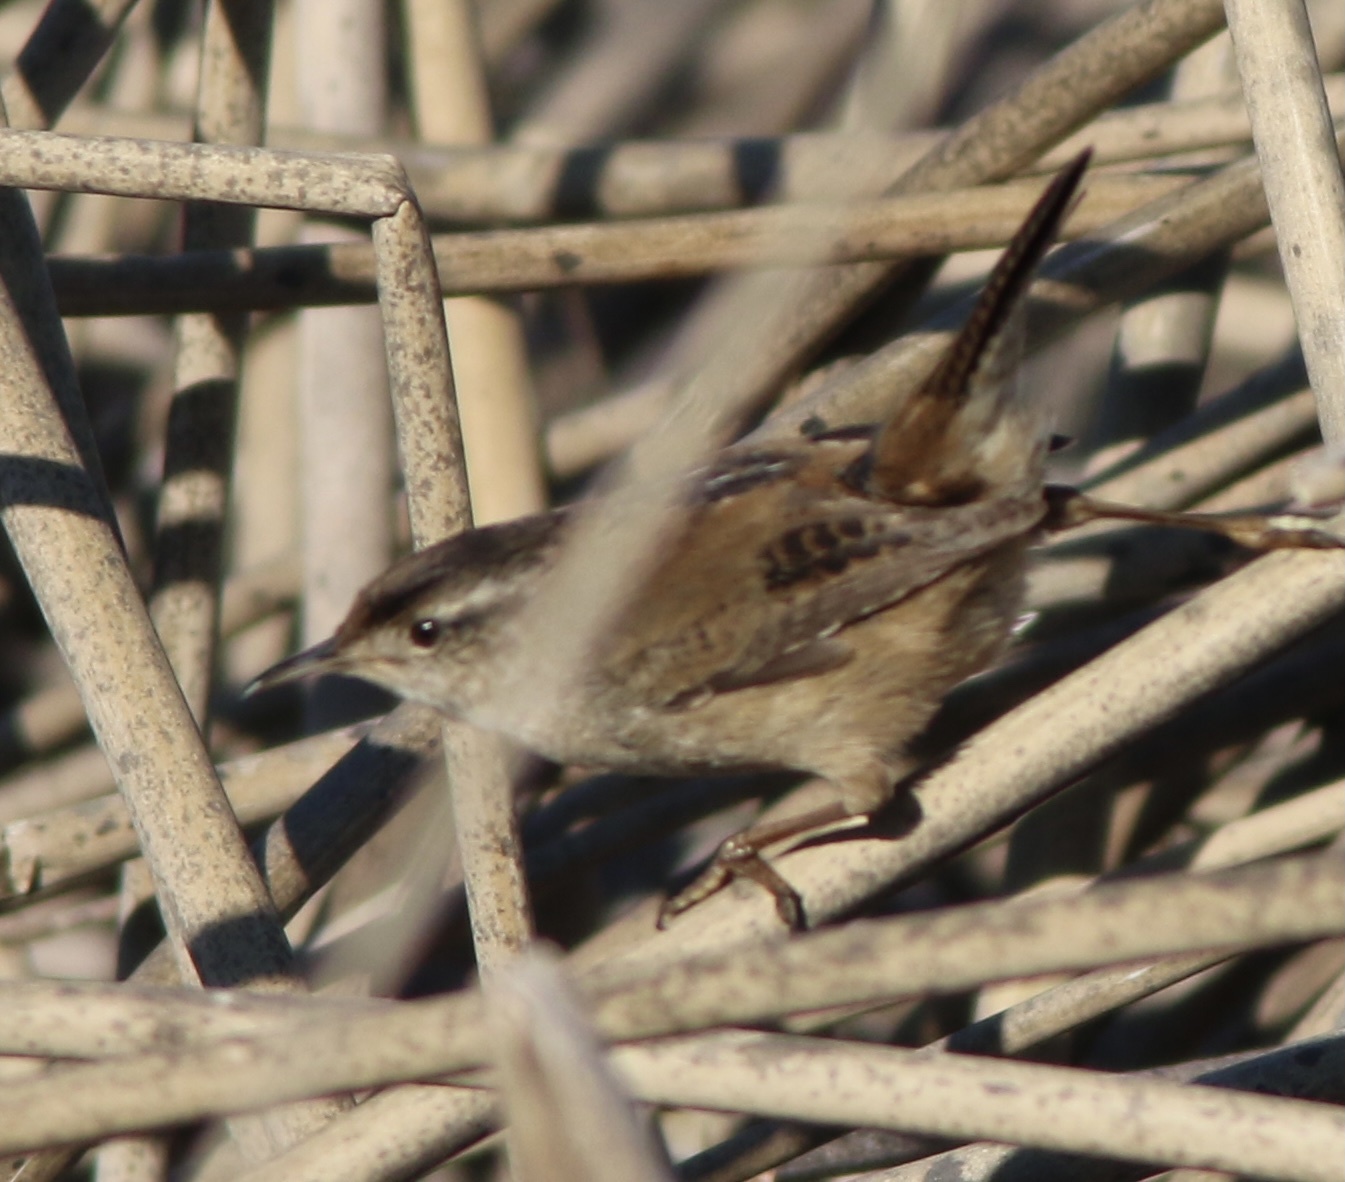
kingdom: Animalia
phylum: Chordata
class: Aves
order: Passeriformes
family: Troglodytidae
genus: Cistothorus
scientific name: Cistothorus palustris
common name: Marsh wren
